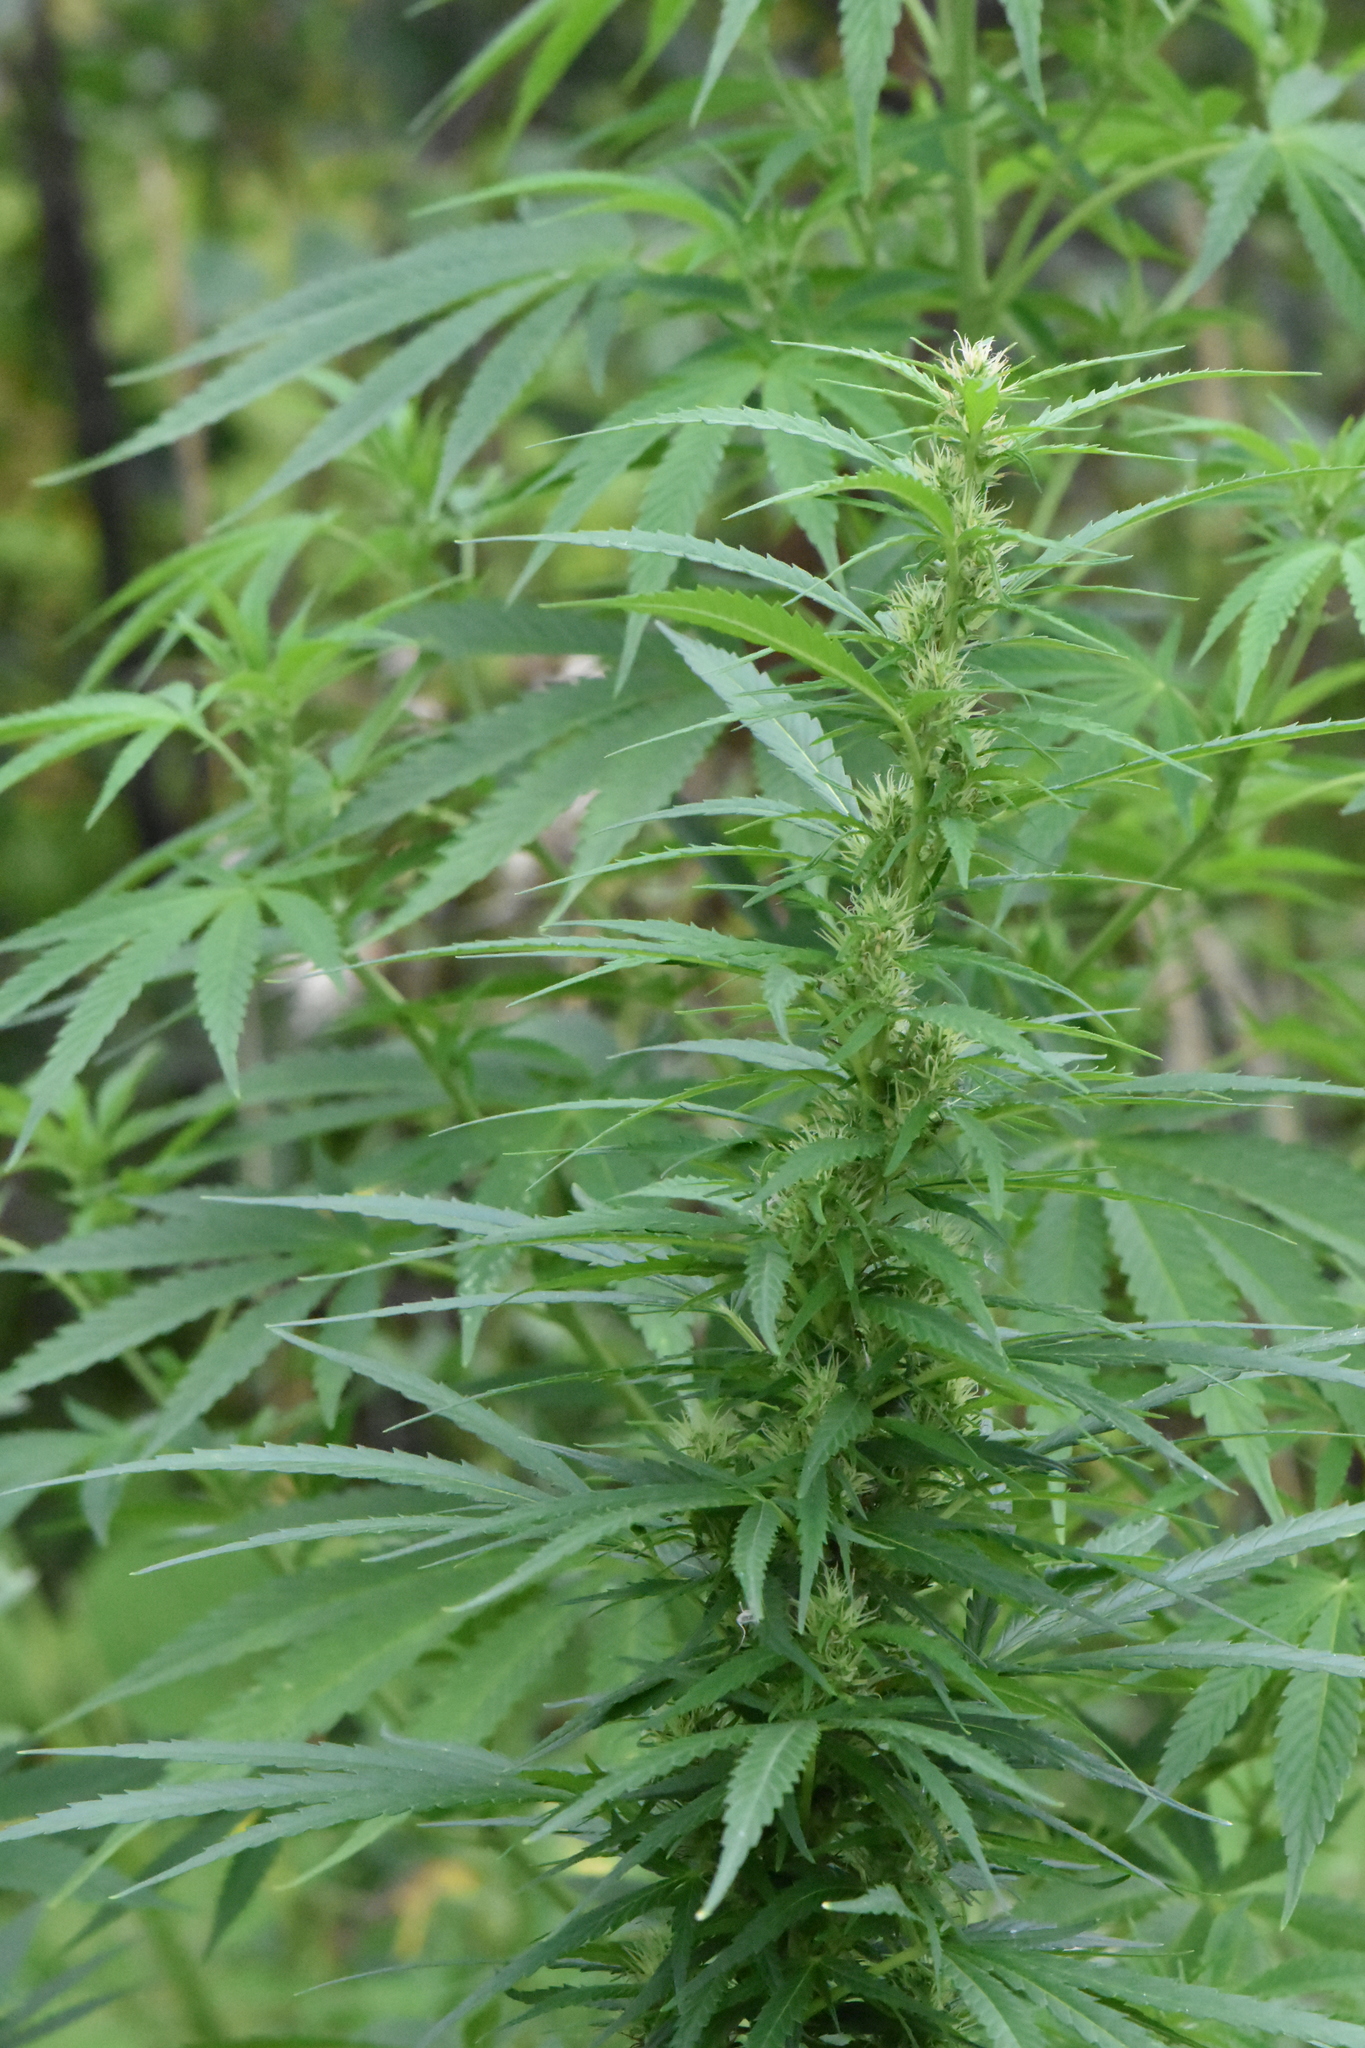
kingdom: Plantae
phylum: Tracheophyta
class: Magnoliopsida
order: Rosales
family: Cannabaceae
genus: Cannabis
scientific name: Cannabis sativa
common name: Hemp
